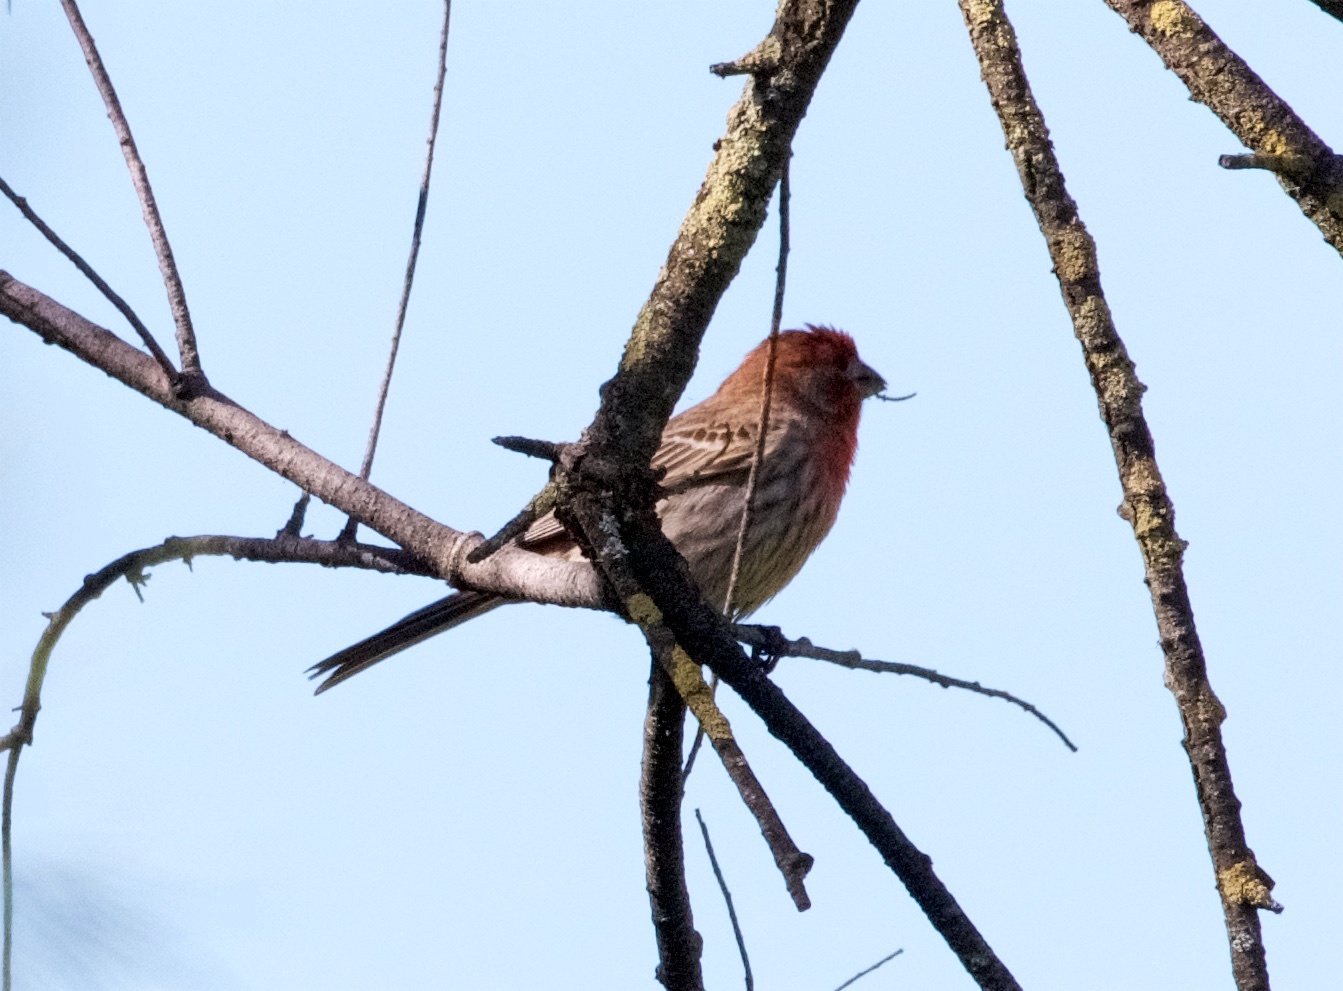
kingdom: Animalia
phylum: Chordata
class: Aves
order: Passeriformes
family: Fringillidae
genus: Haemorhous
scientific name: Haemorhous mexicanus
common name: House finch
